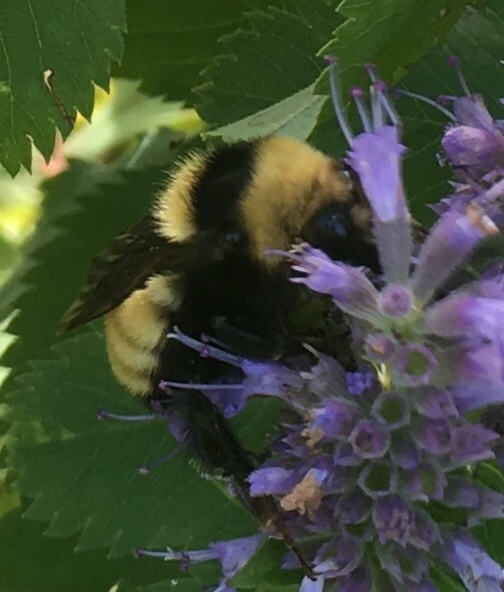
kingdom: Animalia
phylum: Arthropoda
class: Insecta
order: Hymenoptera
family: Apidae
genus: Bombus
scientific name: Bombus borealis
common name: Northern amber bumble bee
